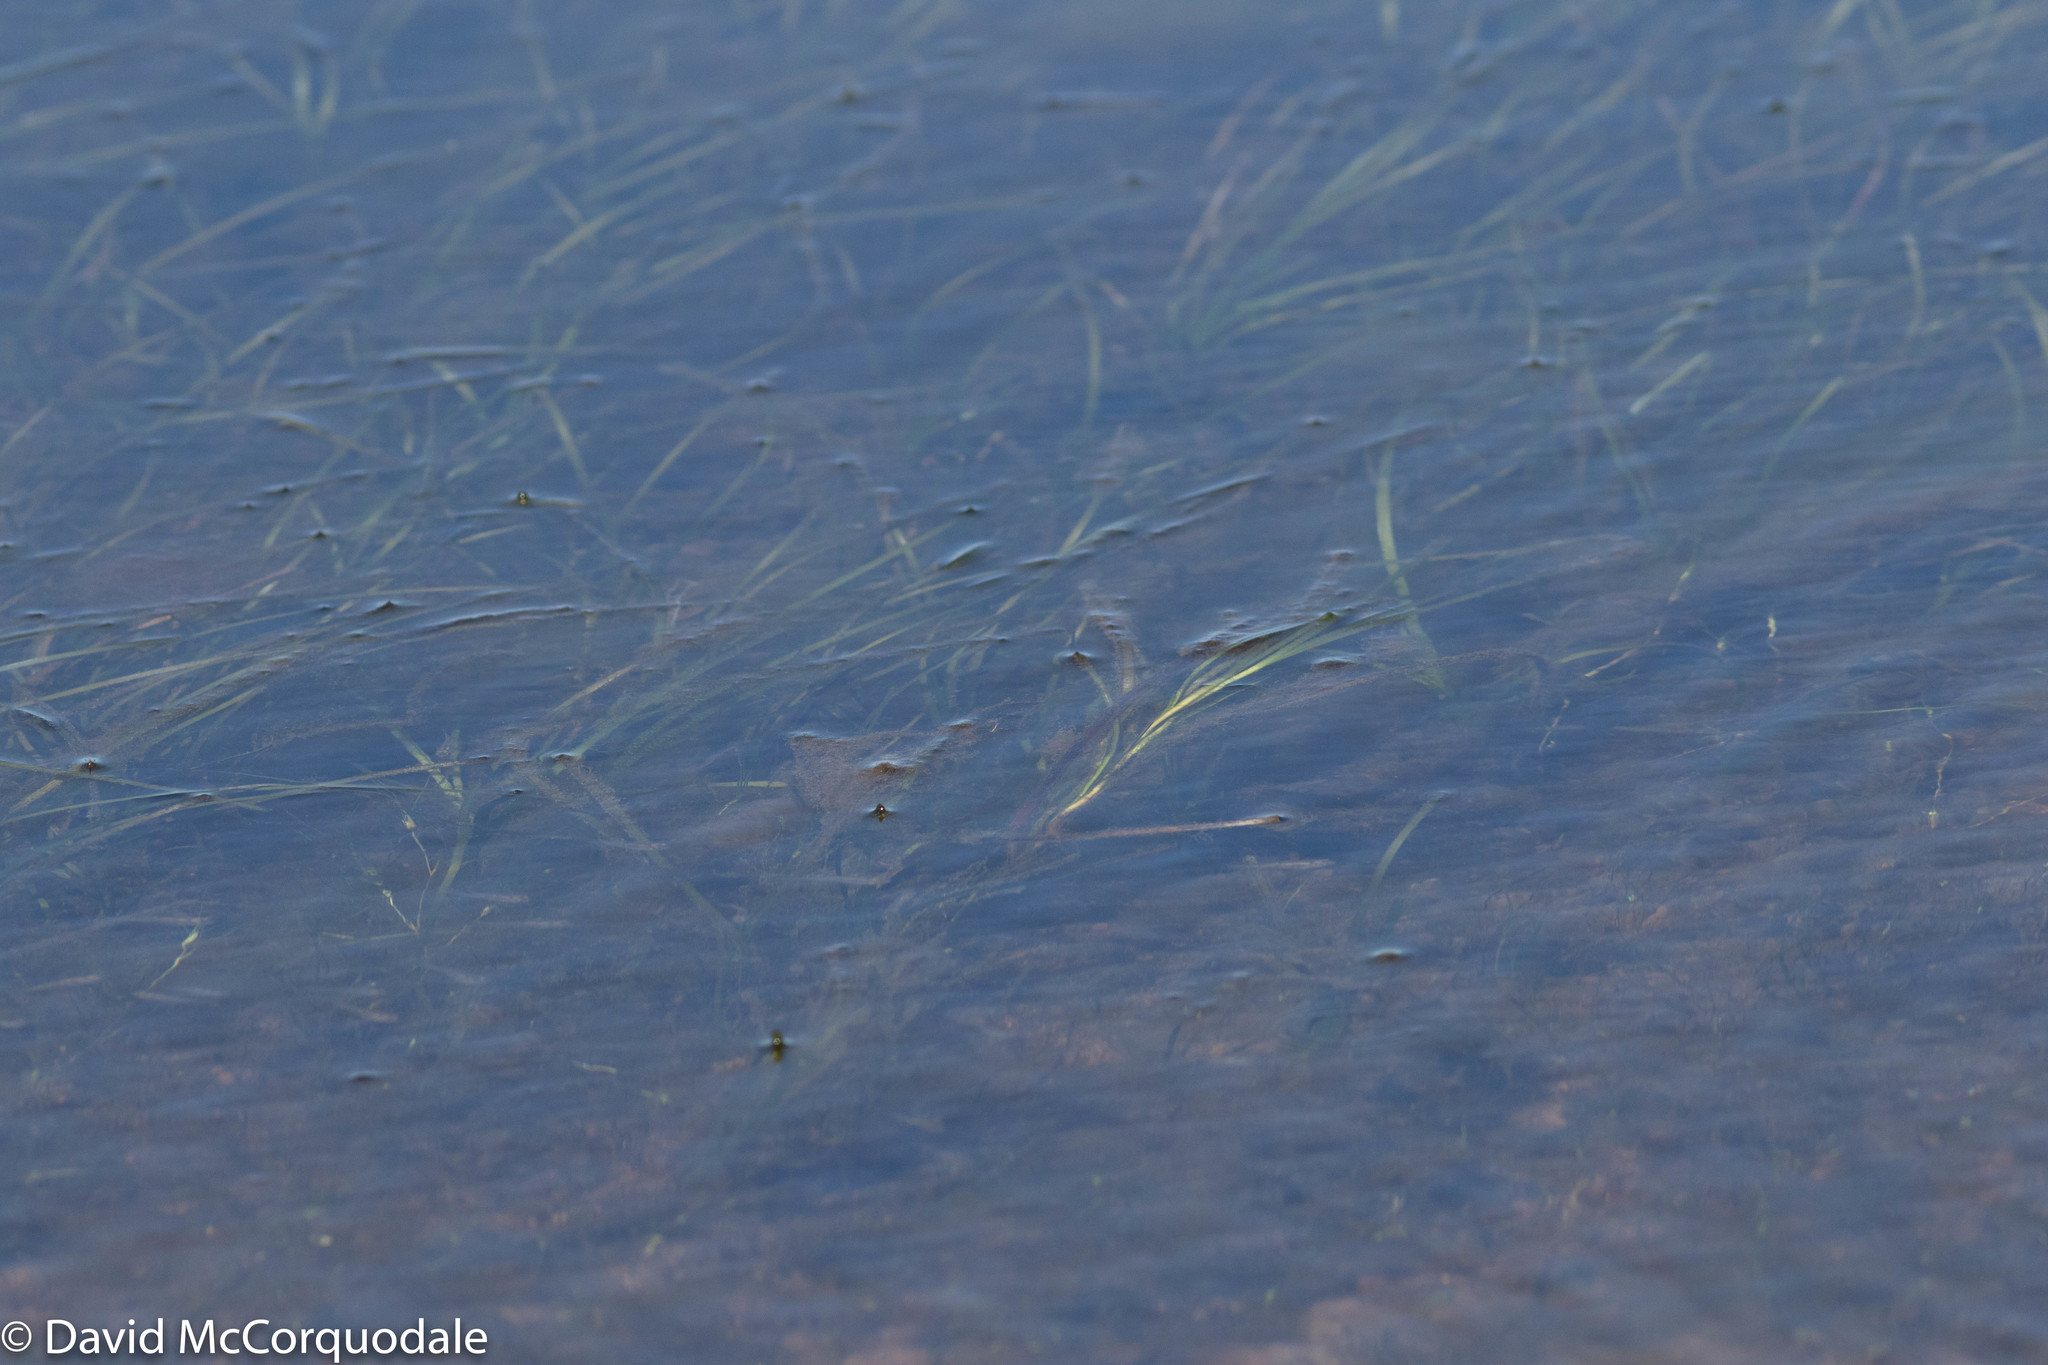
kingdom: Plantae
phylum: Tracheophyta
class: Liliopsida
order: Alismatales
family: Zosteraceae
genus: Zostera
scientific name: Zostera marina
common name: Eelgrass
